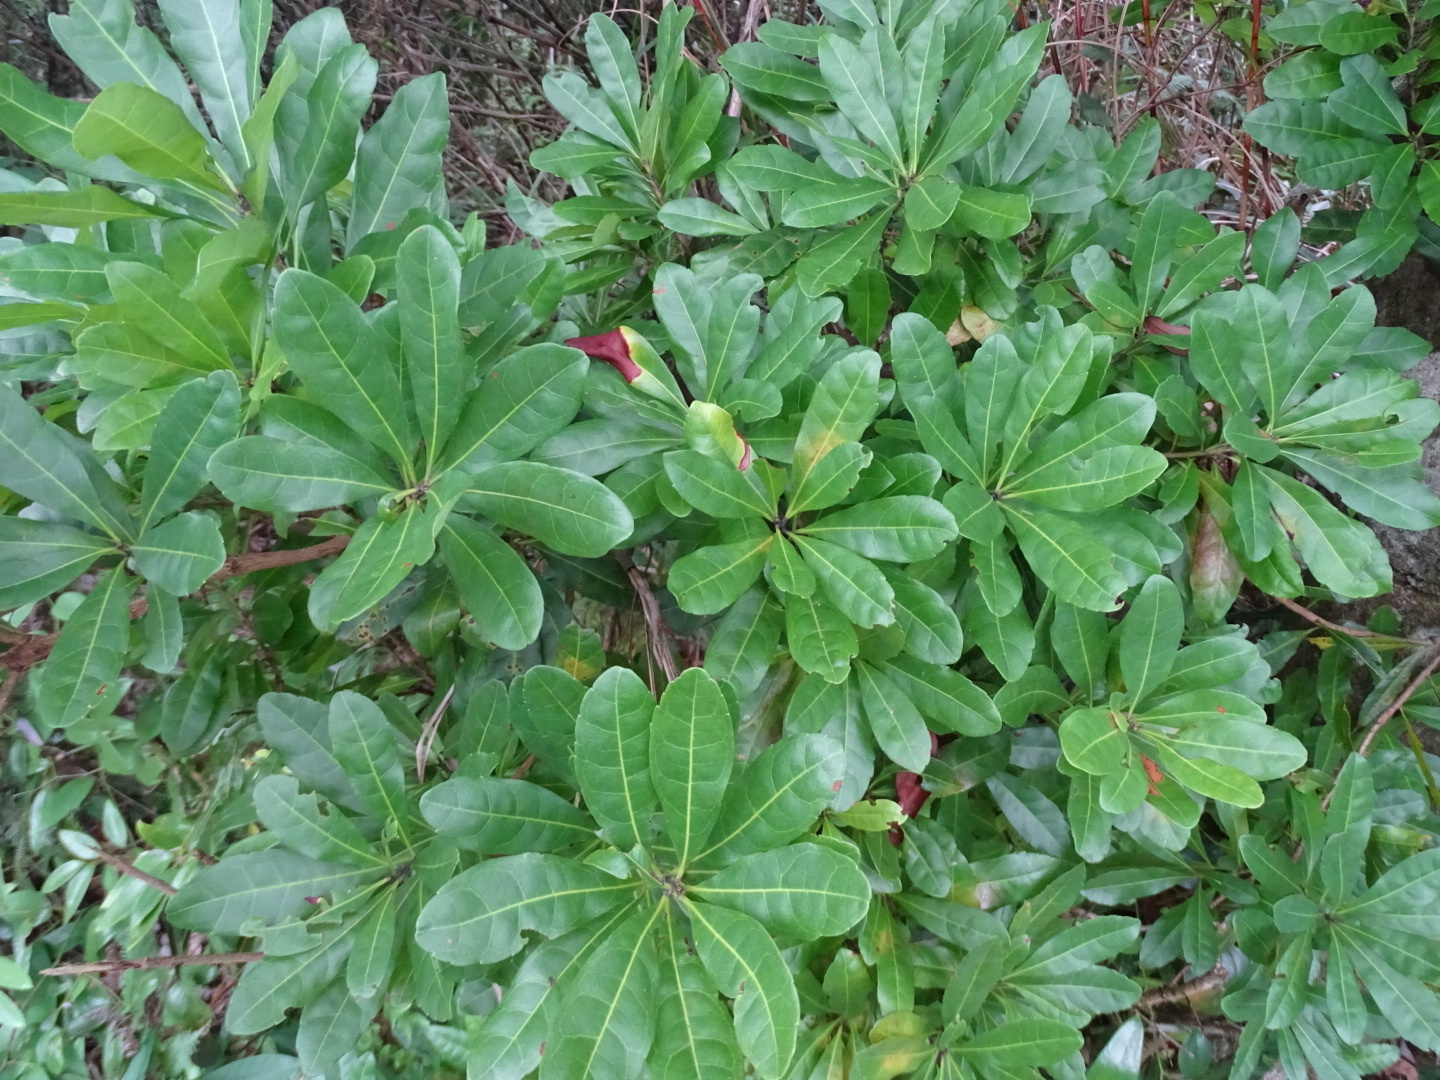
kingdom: Plantae
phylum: Tracheophyta
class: Magnoliopsida
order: Fagales
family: Myricaceae
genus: Morella
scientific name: Morella rubra
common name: Red bayberry
